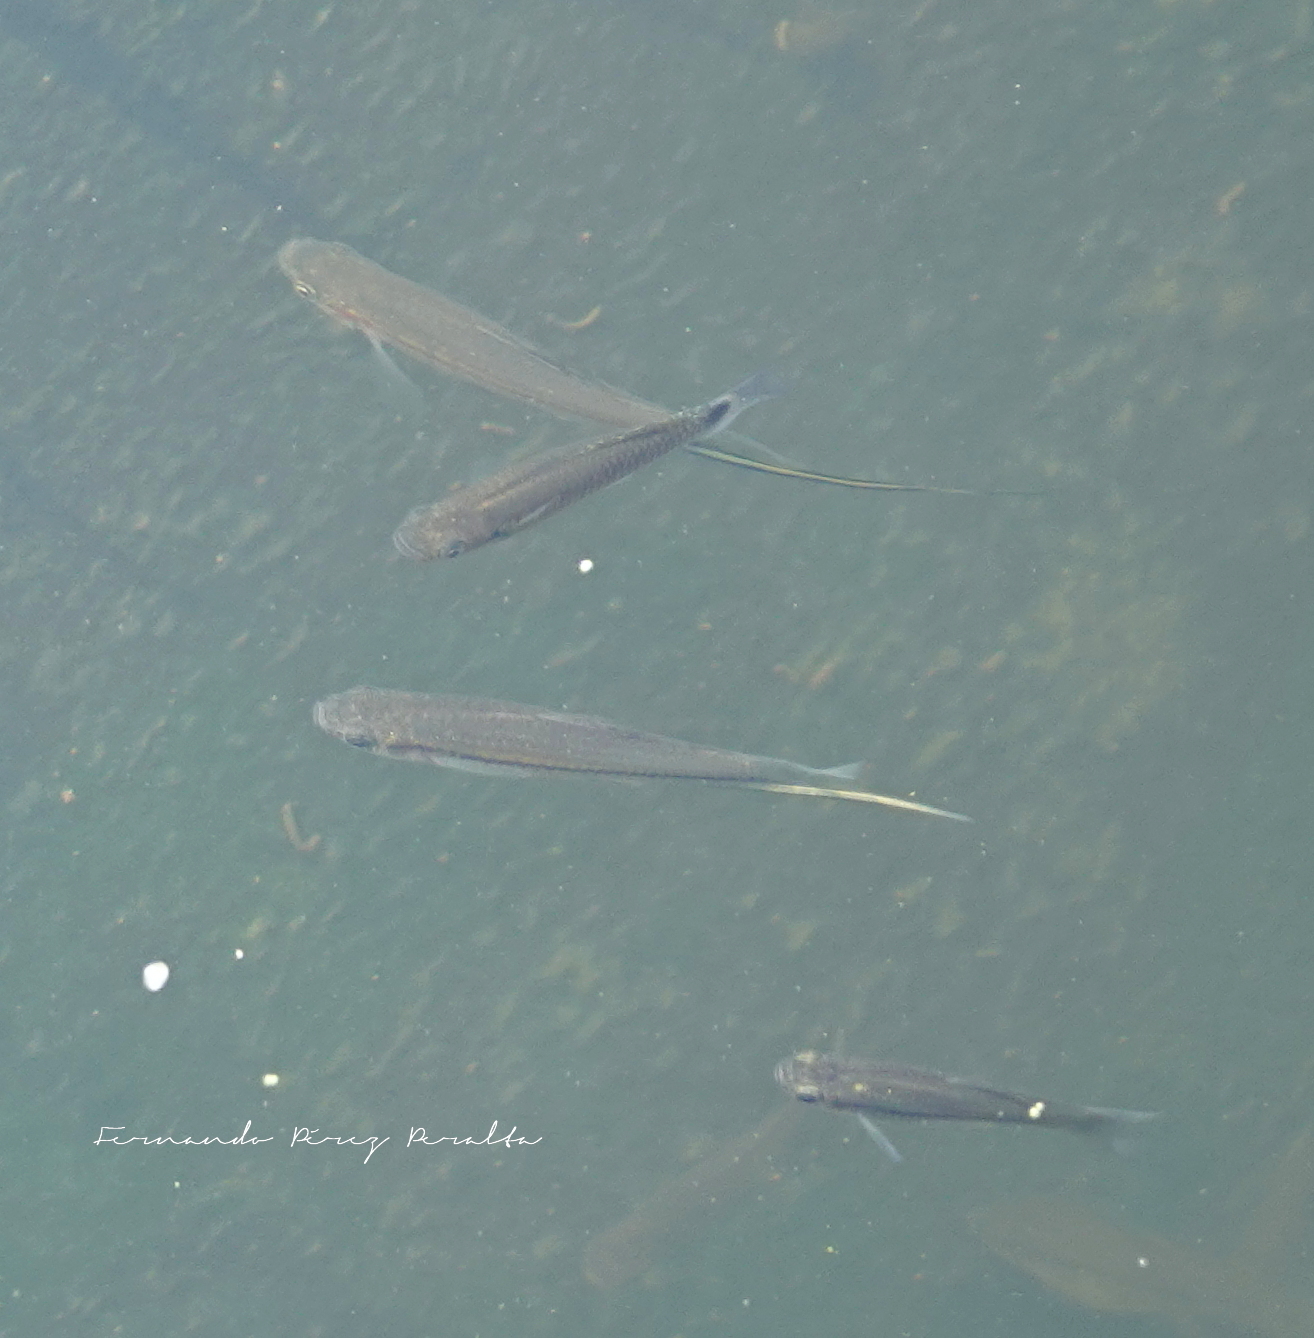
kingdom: Animalia
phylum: Chordata
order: Cyprinodontiformes
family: Poeciliidae
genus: Xiphophorus
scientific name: Xiphophorus hellerii
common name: Green swordtail
